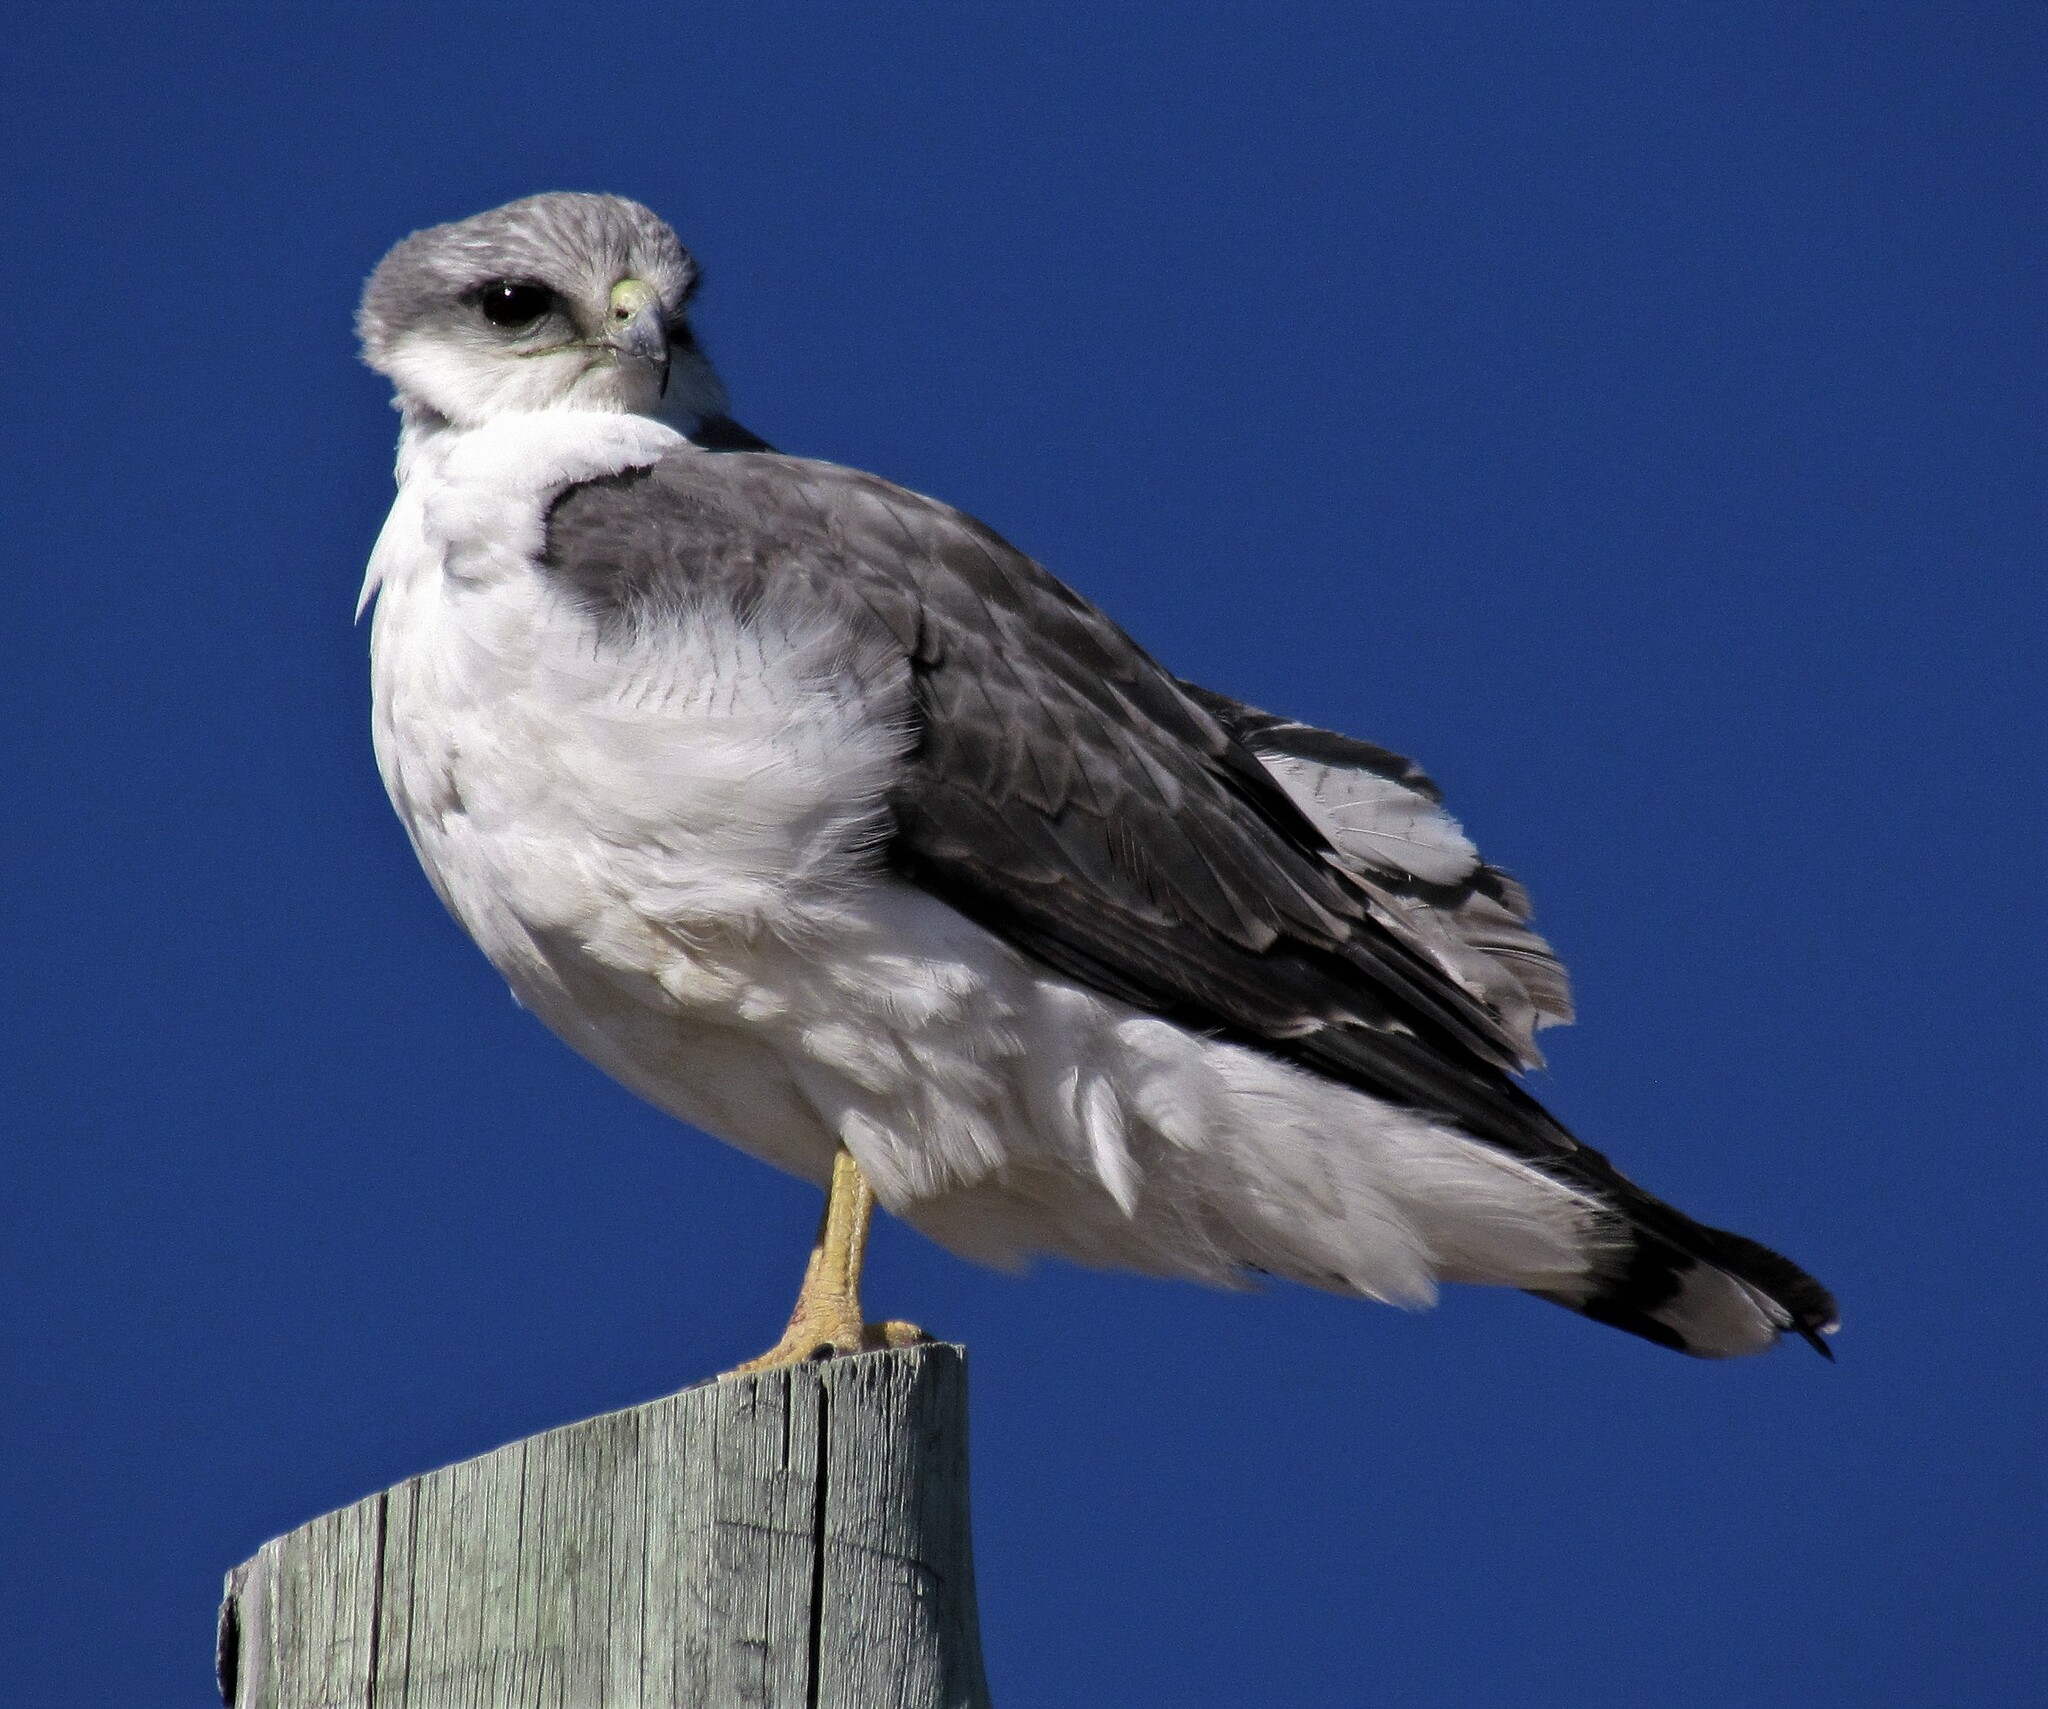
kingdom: Animalia
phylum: Chordata
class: Aves
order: Accipitriformes
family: Accipitridae
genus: Buteo
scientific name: Buteo polyosoma
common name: Variable hawk
